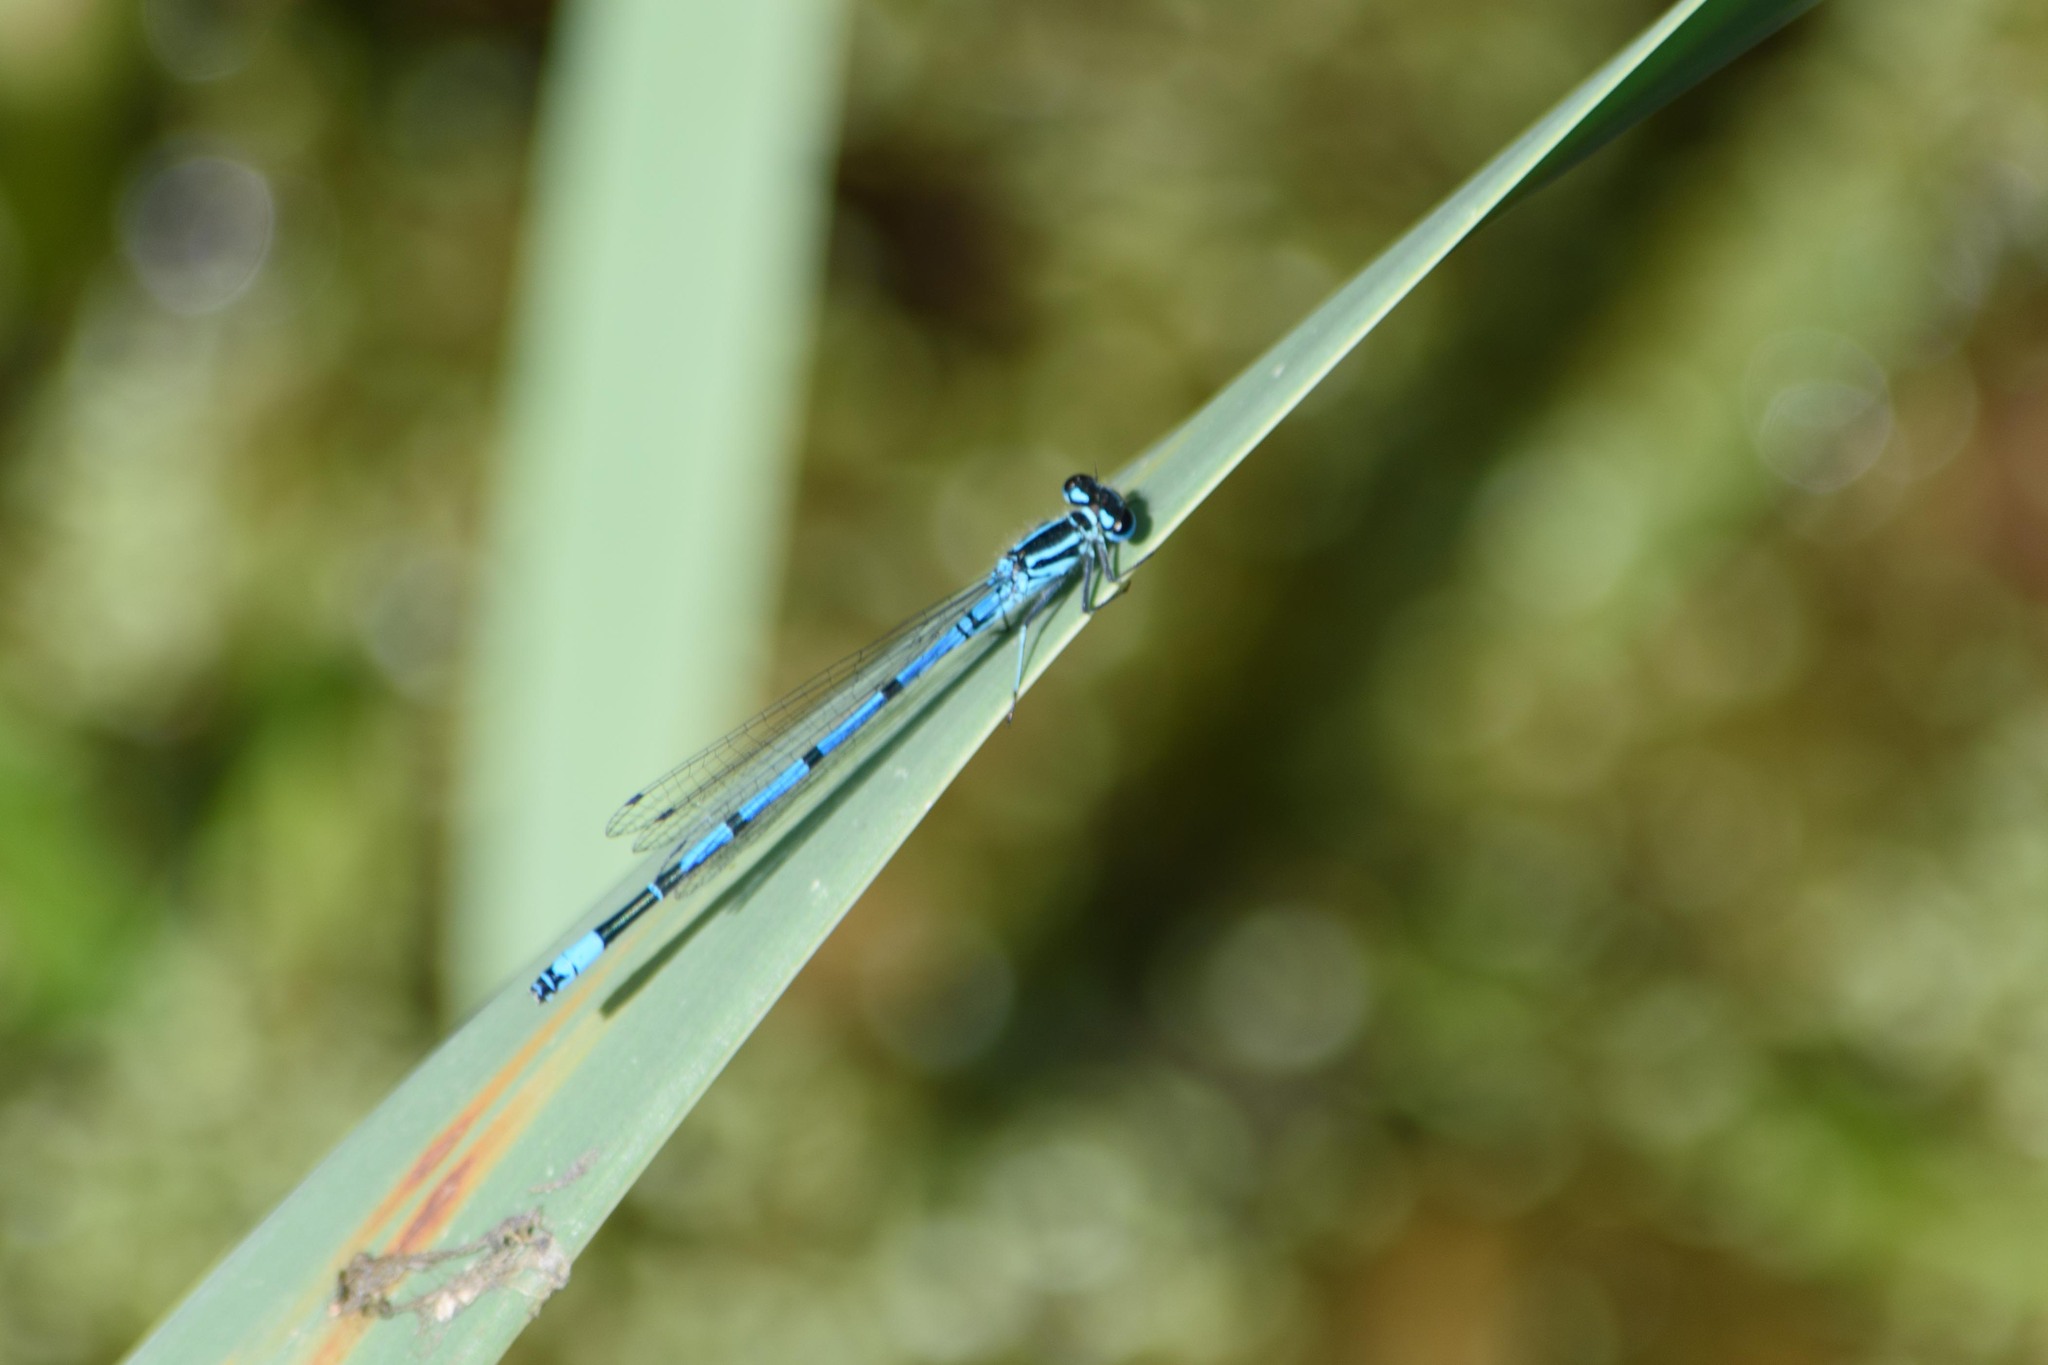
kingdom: Animalia
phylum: Arthropoda
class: Insecta
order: Odonata
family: Coenagrionidae
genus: Coenagrion
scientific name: Coenagrion puella
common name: Azure damselfly
